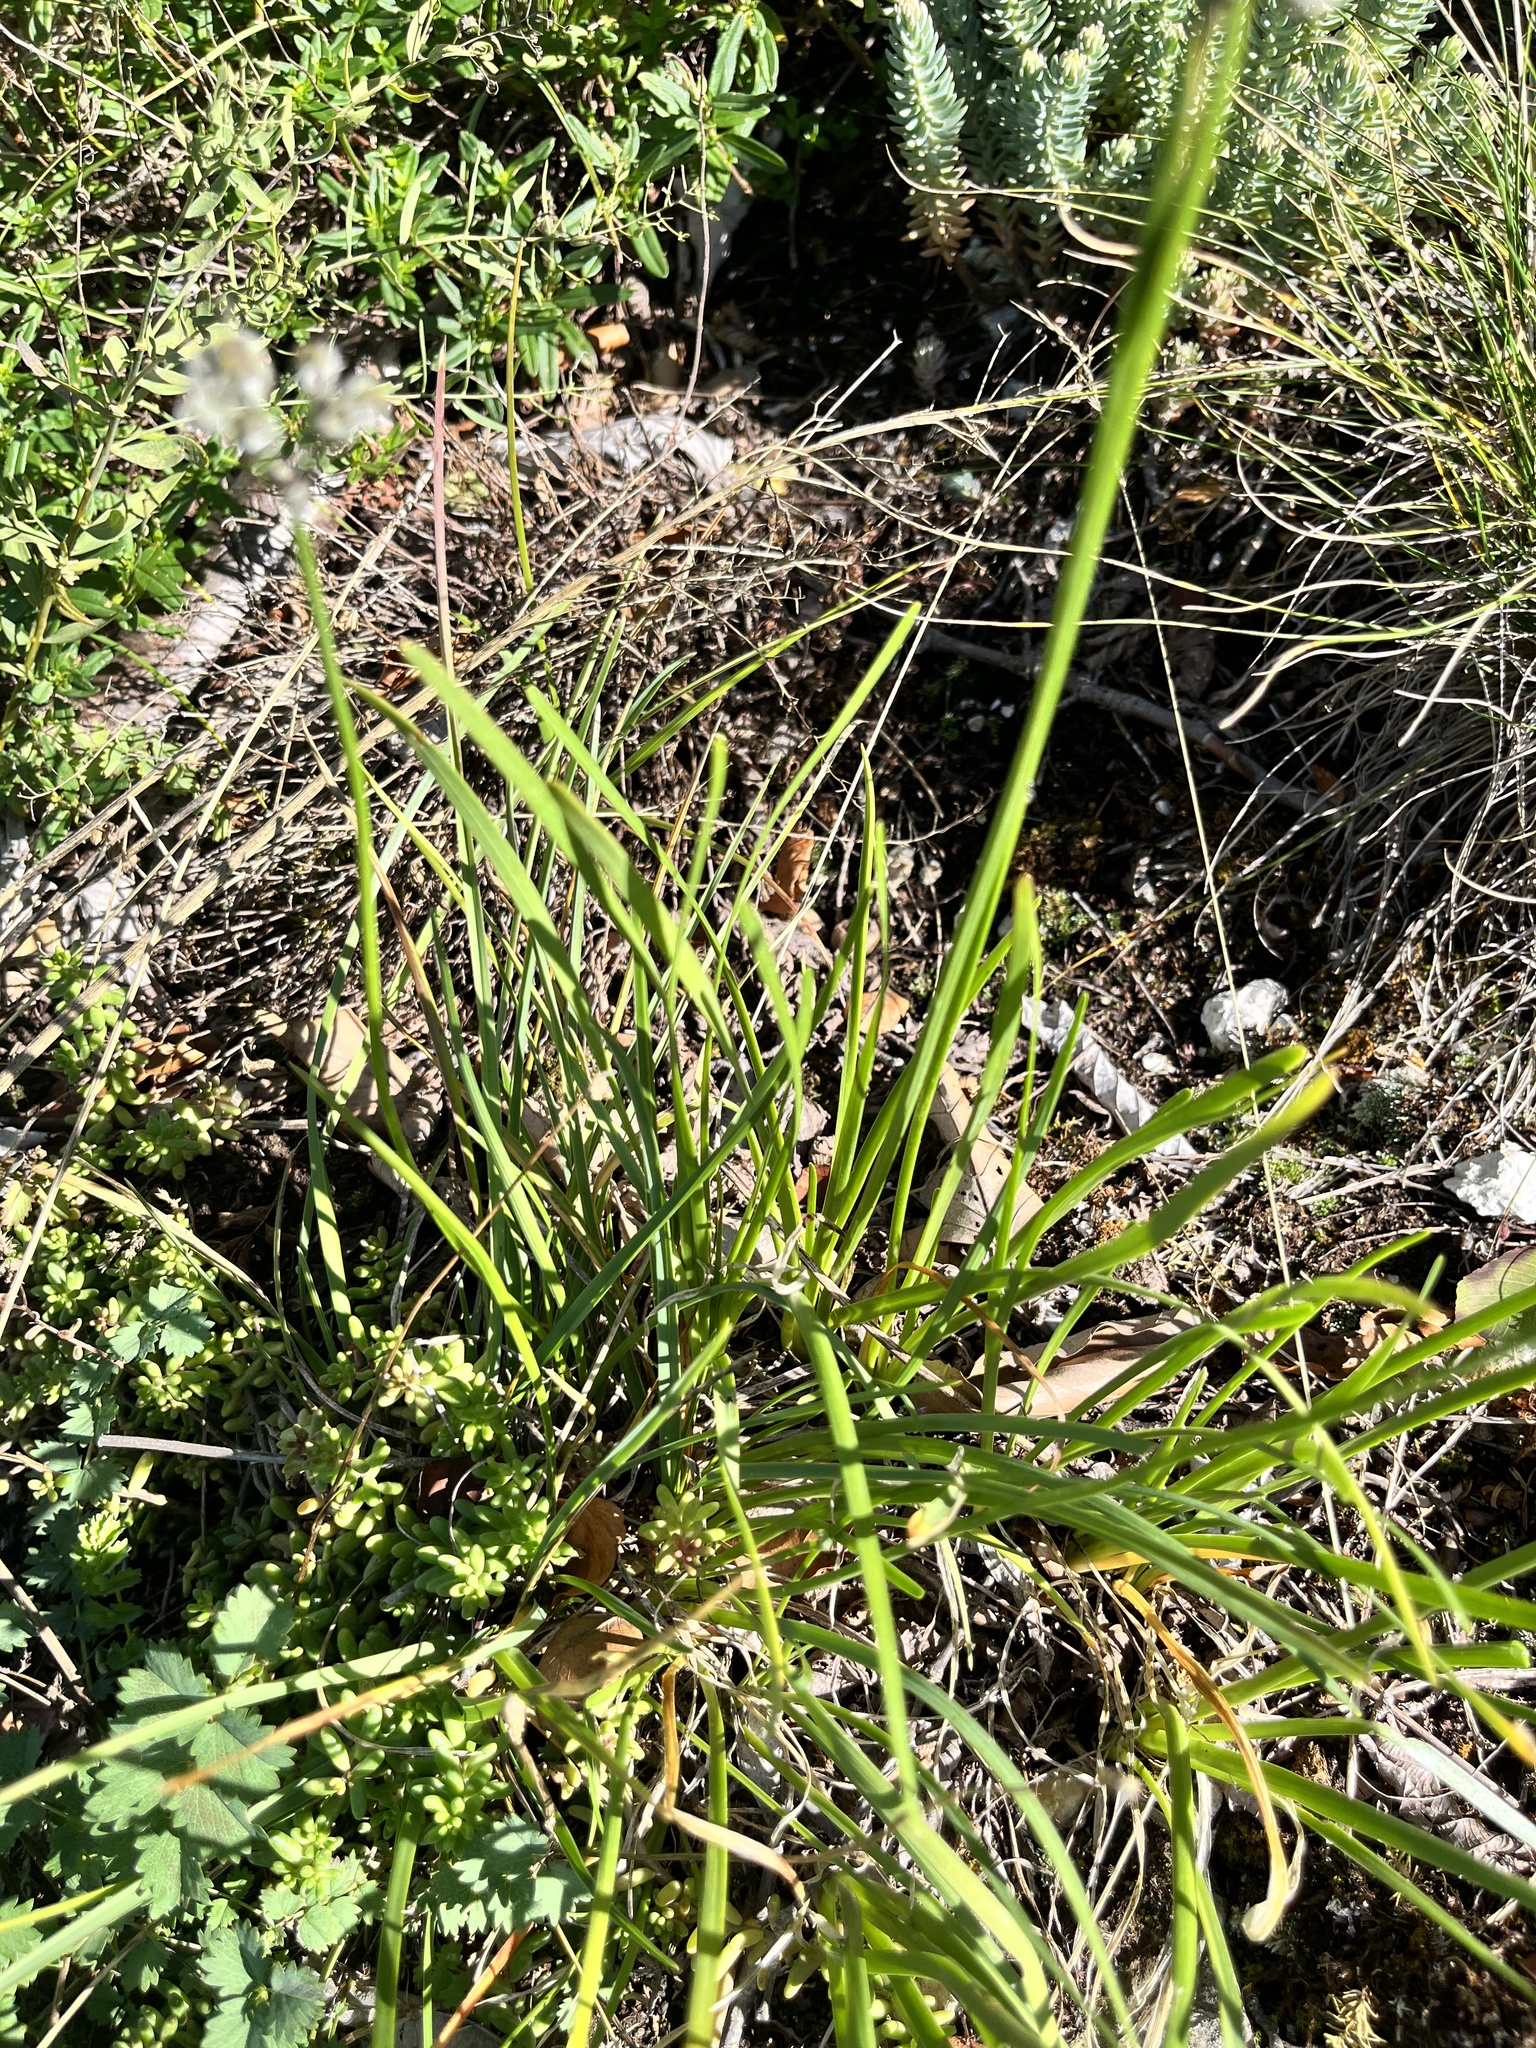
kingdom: Plantae
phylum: Tracheophyta
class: Liliopsida
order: Asparagales
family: Amaryllidaceae
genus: Allium
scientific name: Allium lusitanicum
